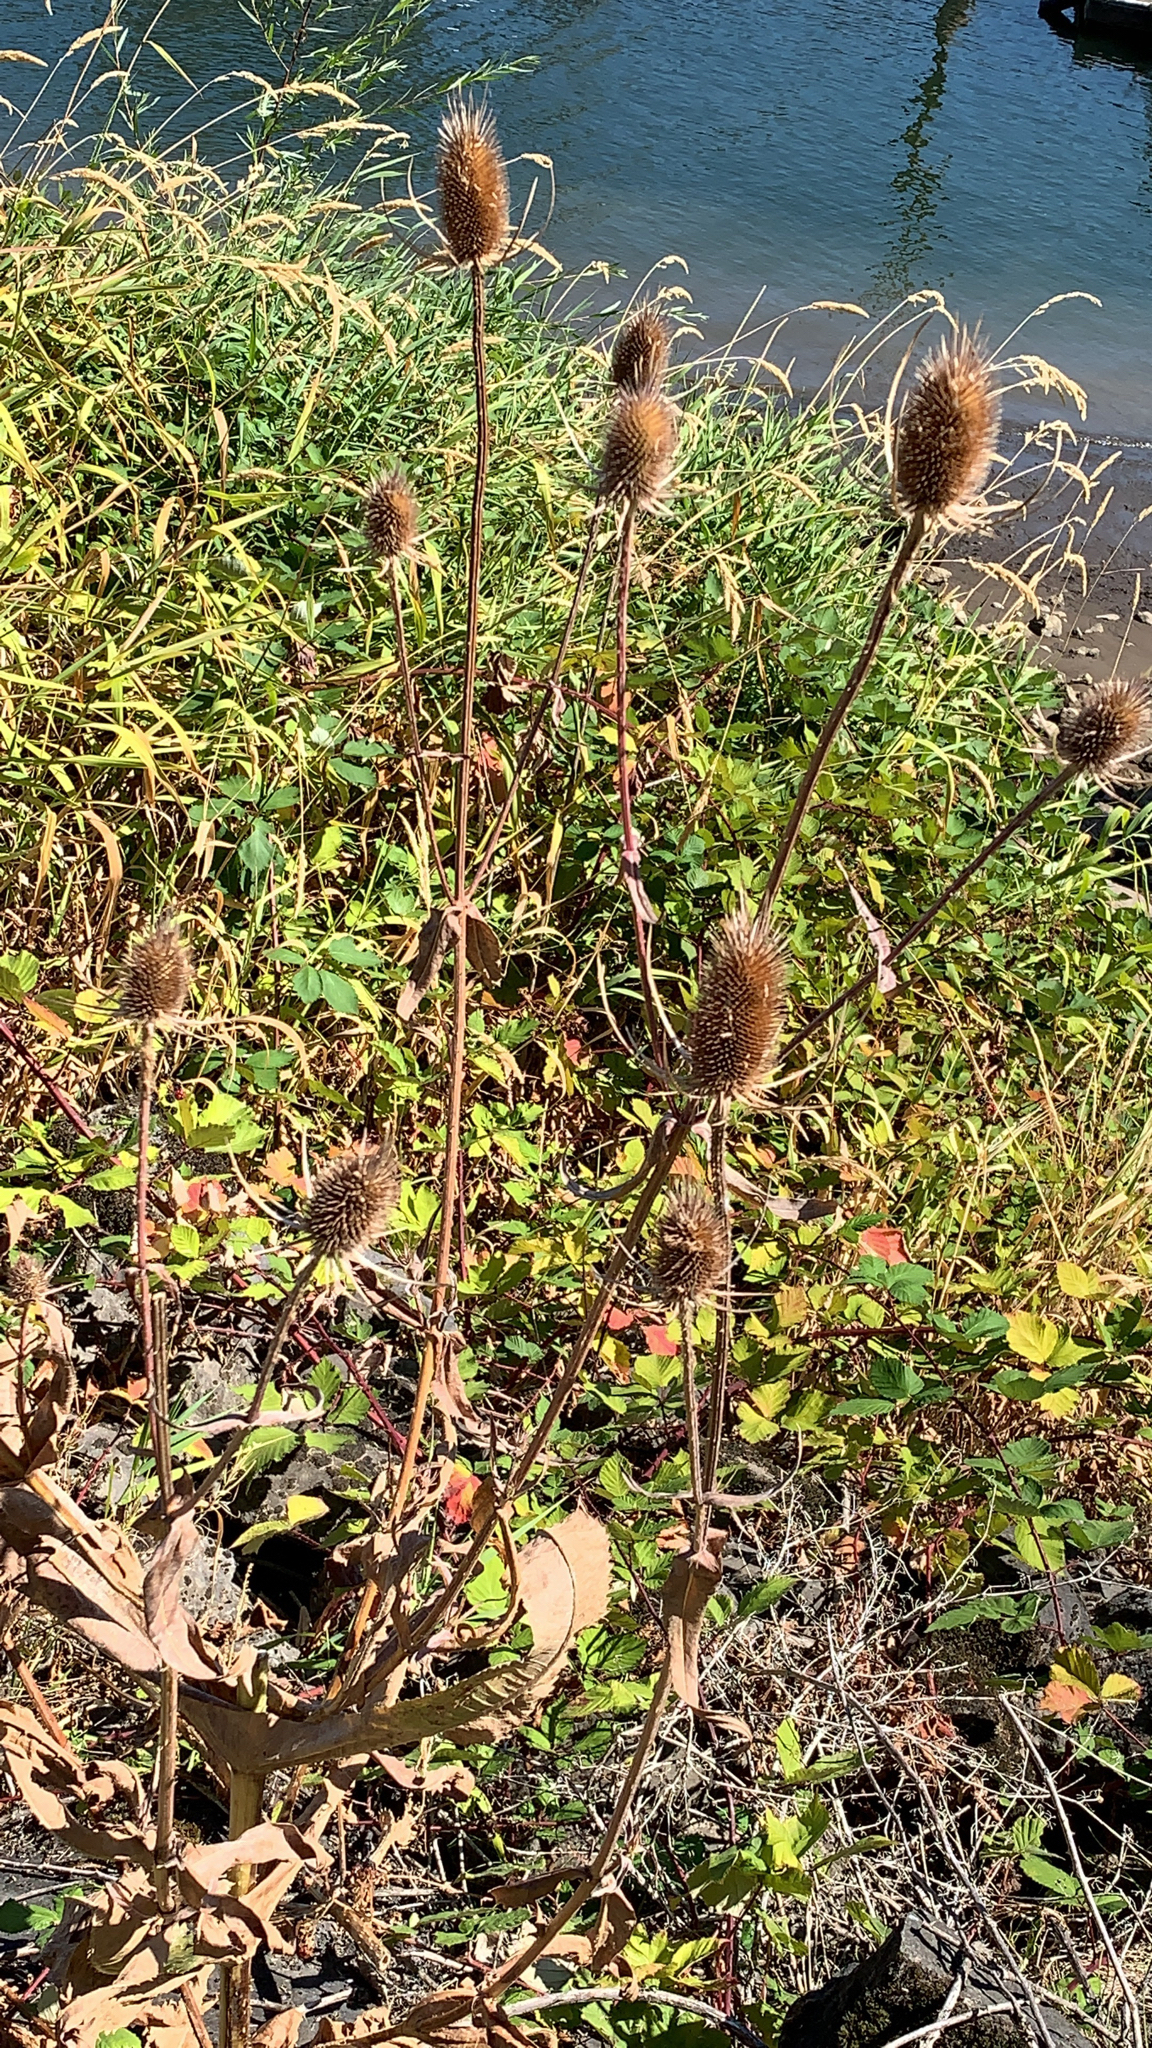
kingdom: Plantae
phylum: Tracheophyta
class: Magnoliopsida
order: Dipsacales
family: Caprifoliaceae
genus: Dipsacus
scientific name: Dipsacus fullonum
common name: Teasel
